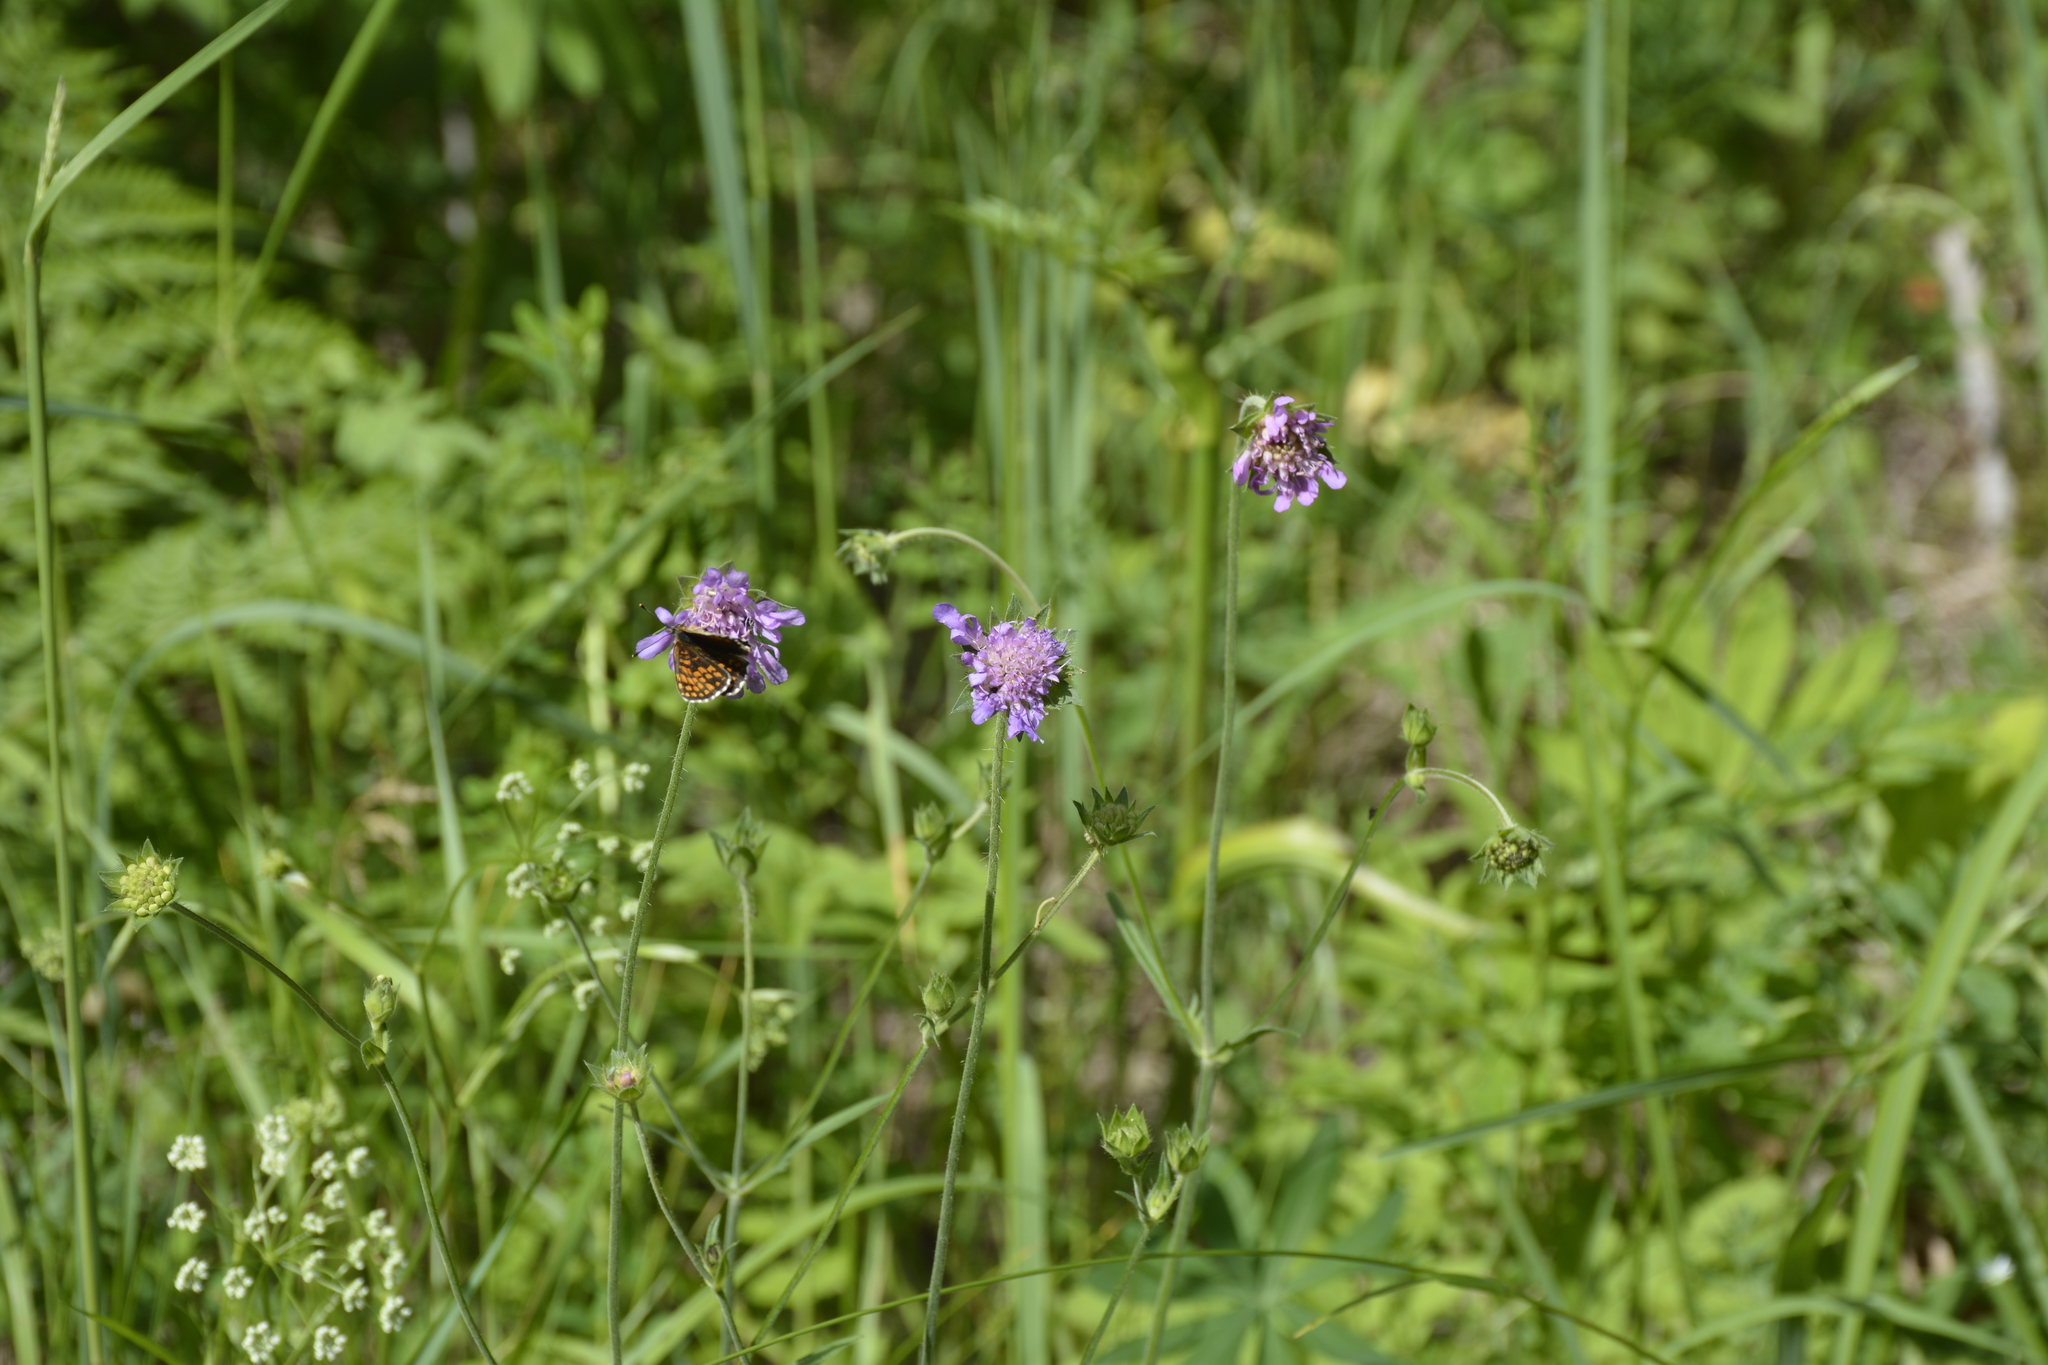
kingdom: Plantae
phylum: Tracheophyta
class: Magnoliopsida
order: Dipsacales
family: Caprifoliaceae
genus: Knautia
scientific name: Knautia arvensis
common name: Field scabiosa
